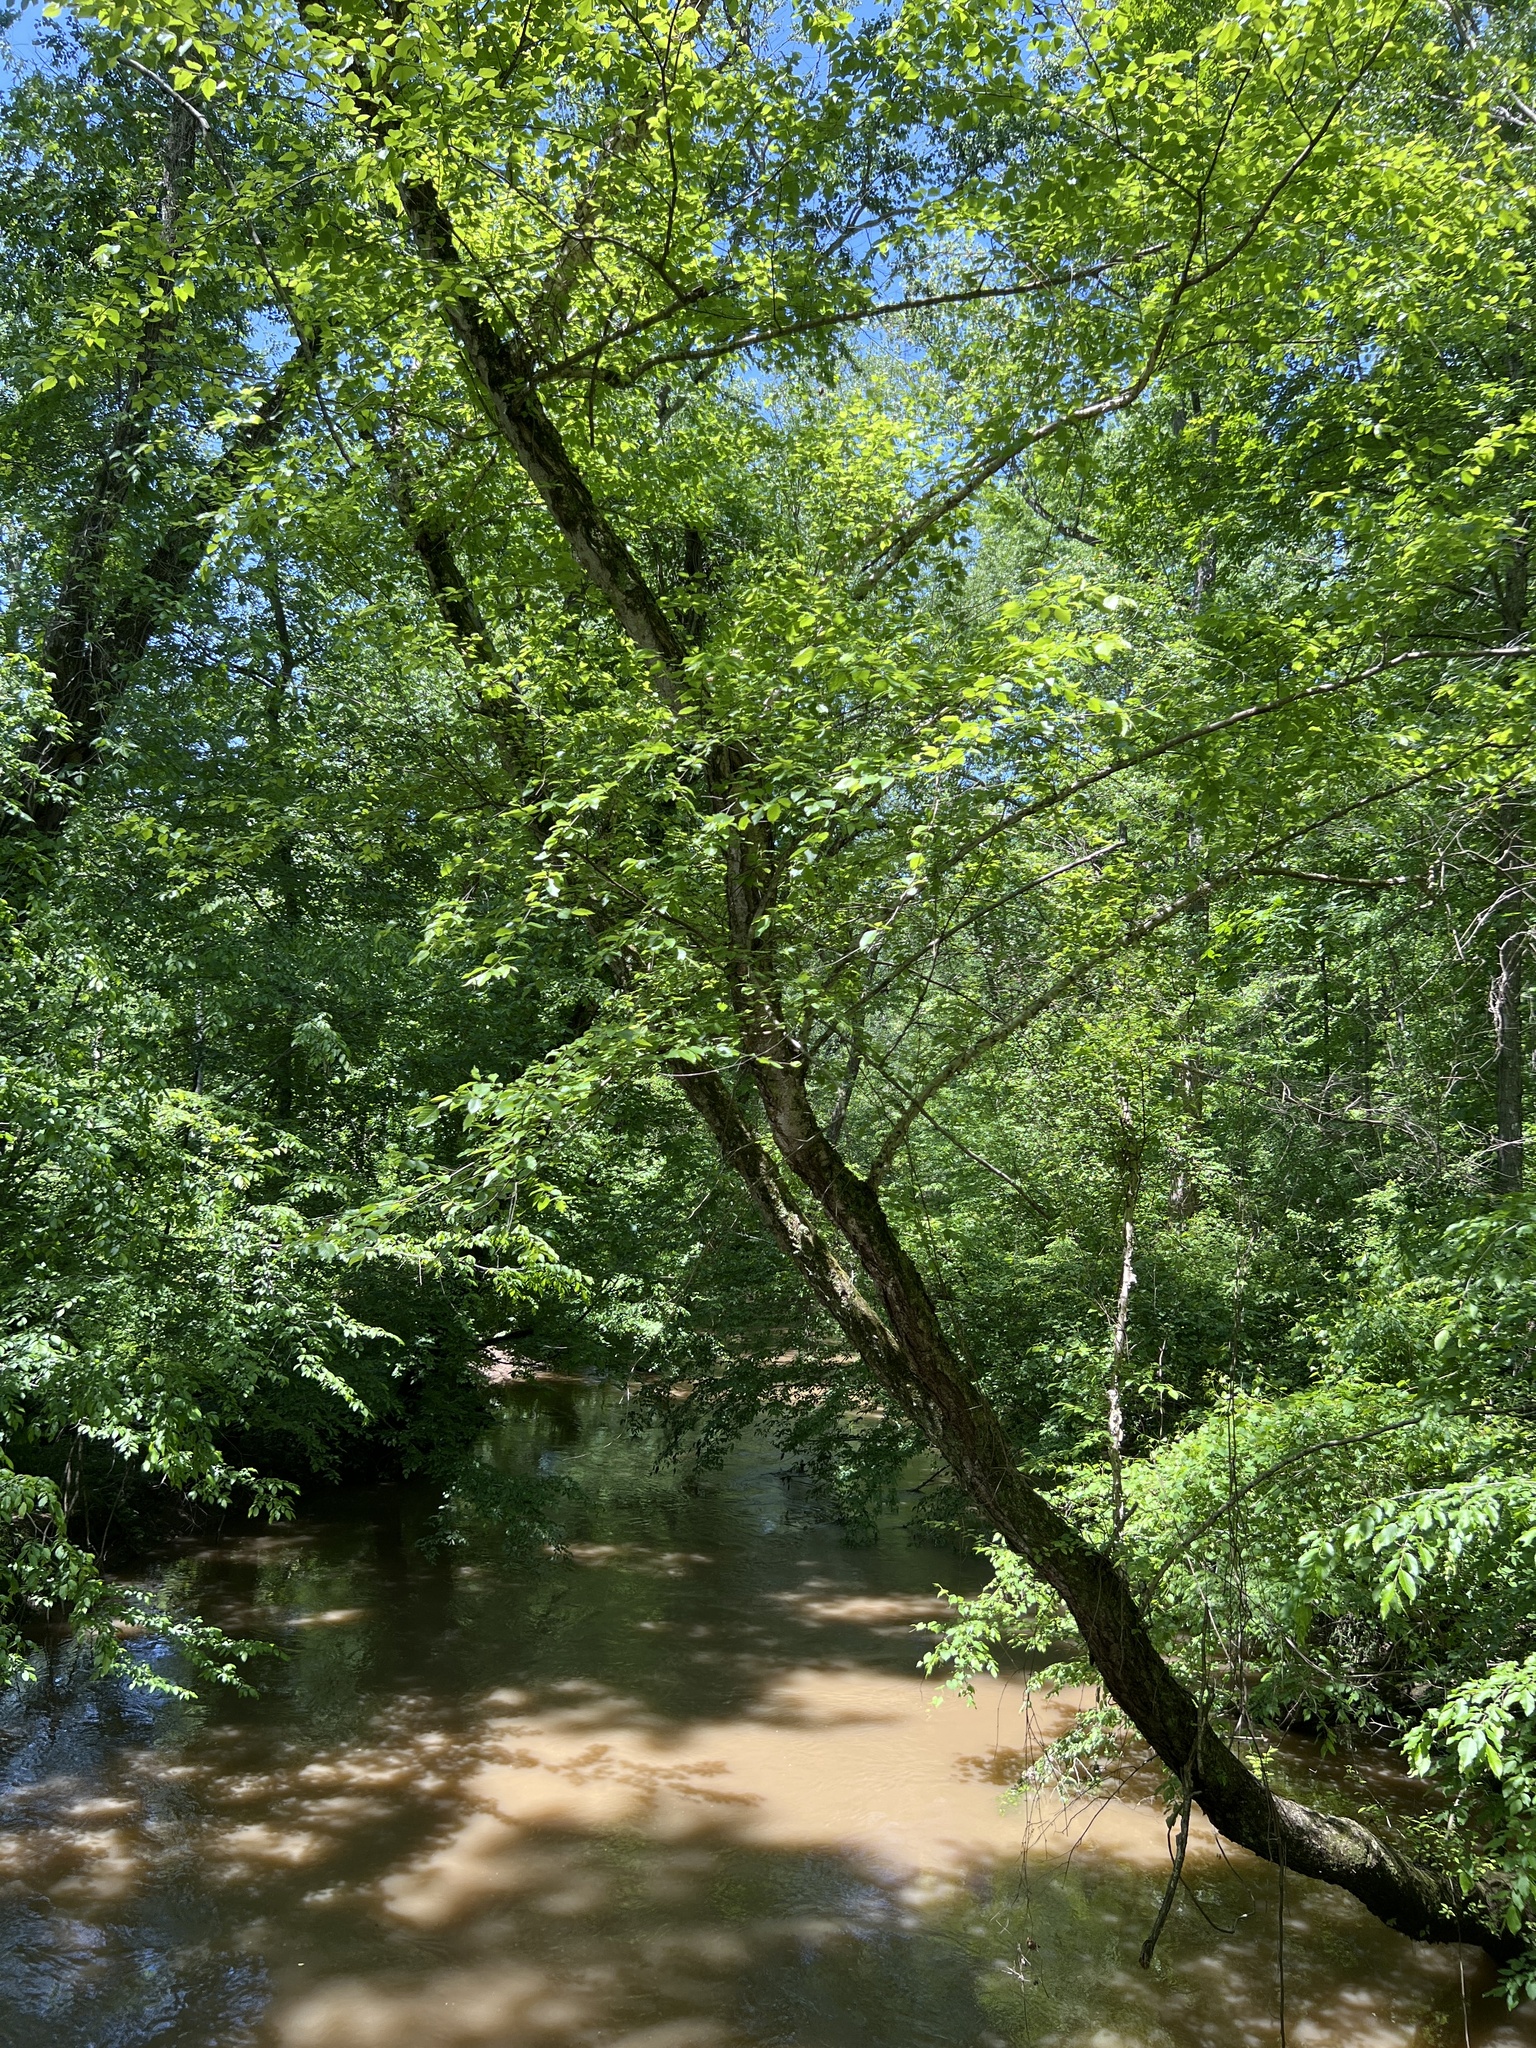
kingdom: Plantae
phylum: Tracheophyta
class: Magnoliopsida
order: Fagales
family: Betulaceae
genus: Betula
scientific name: Betula nigra
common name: Black birch
